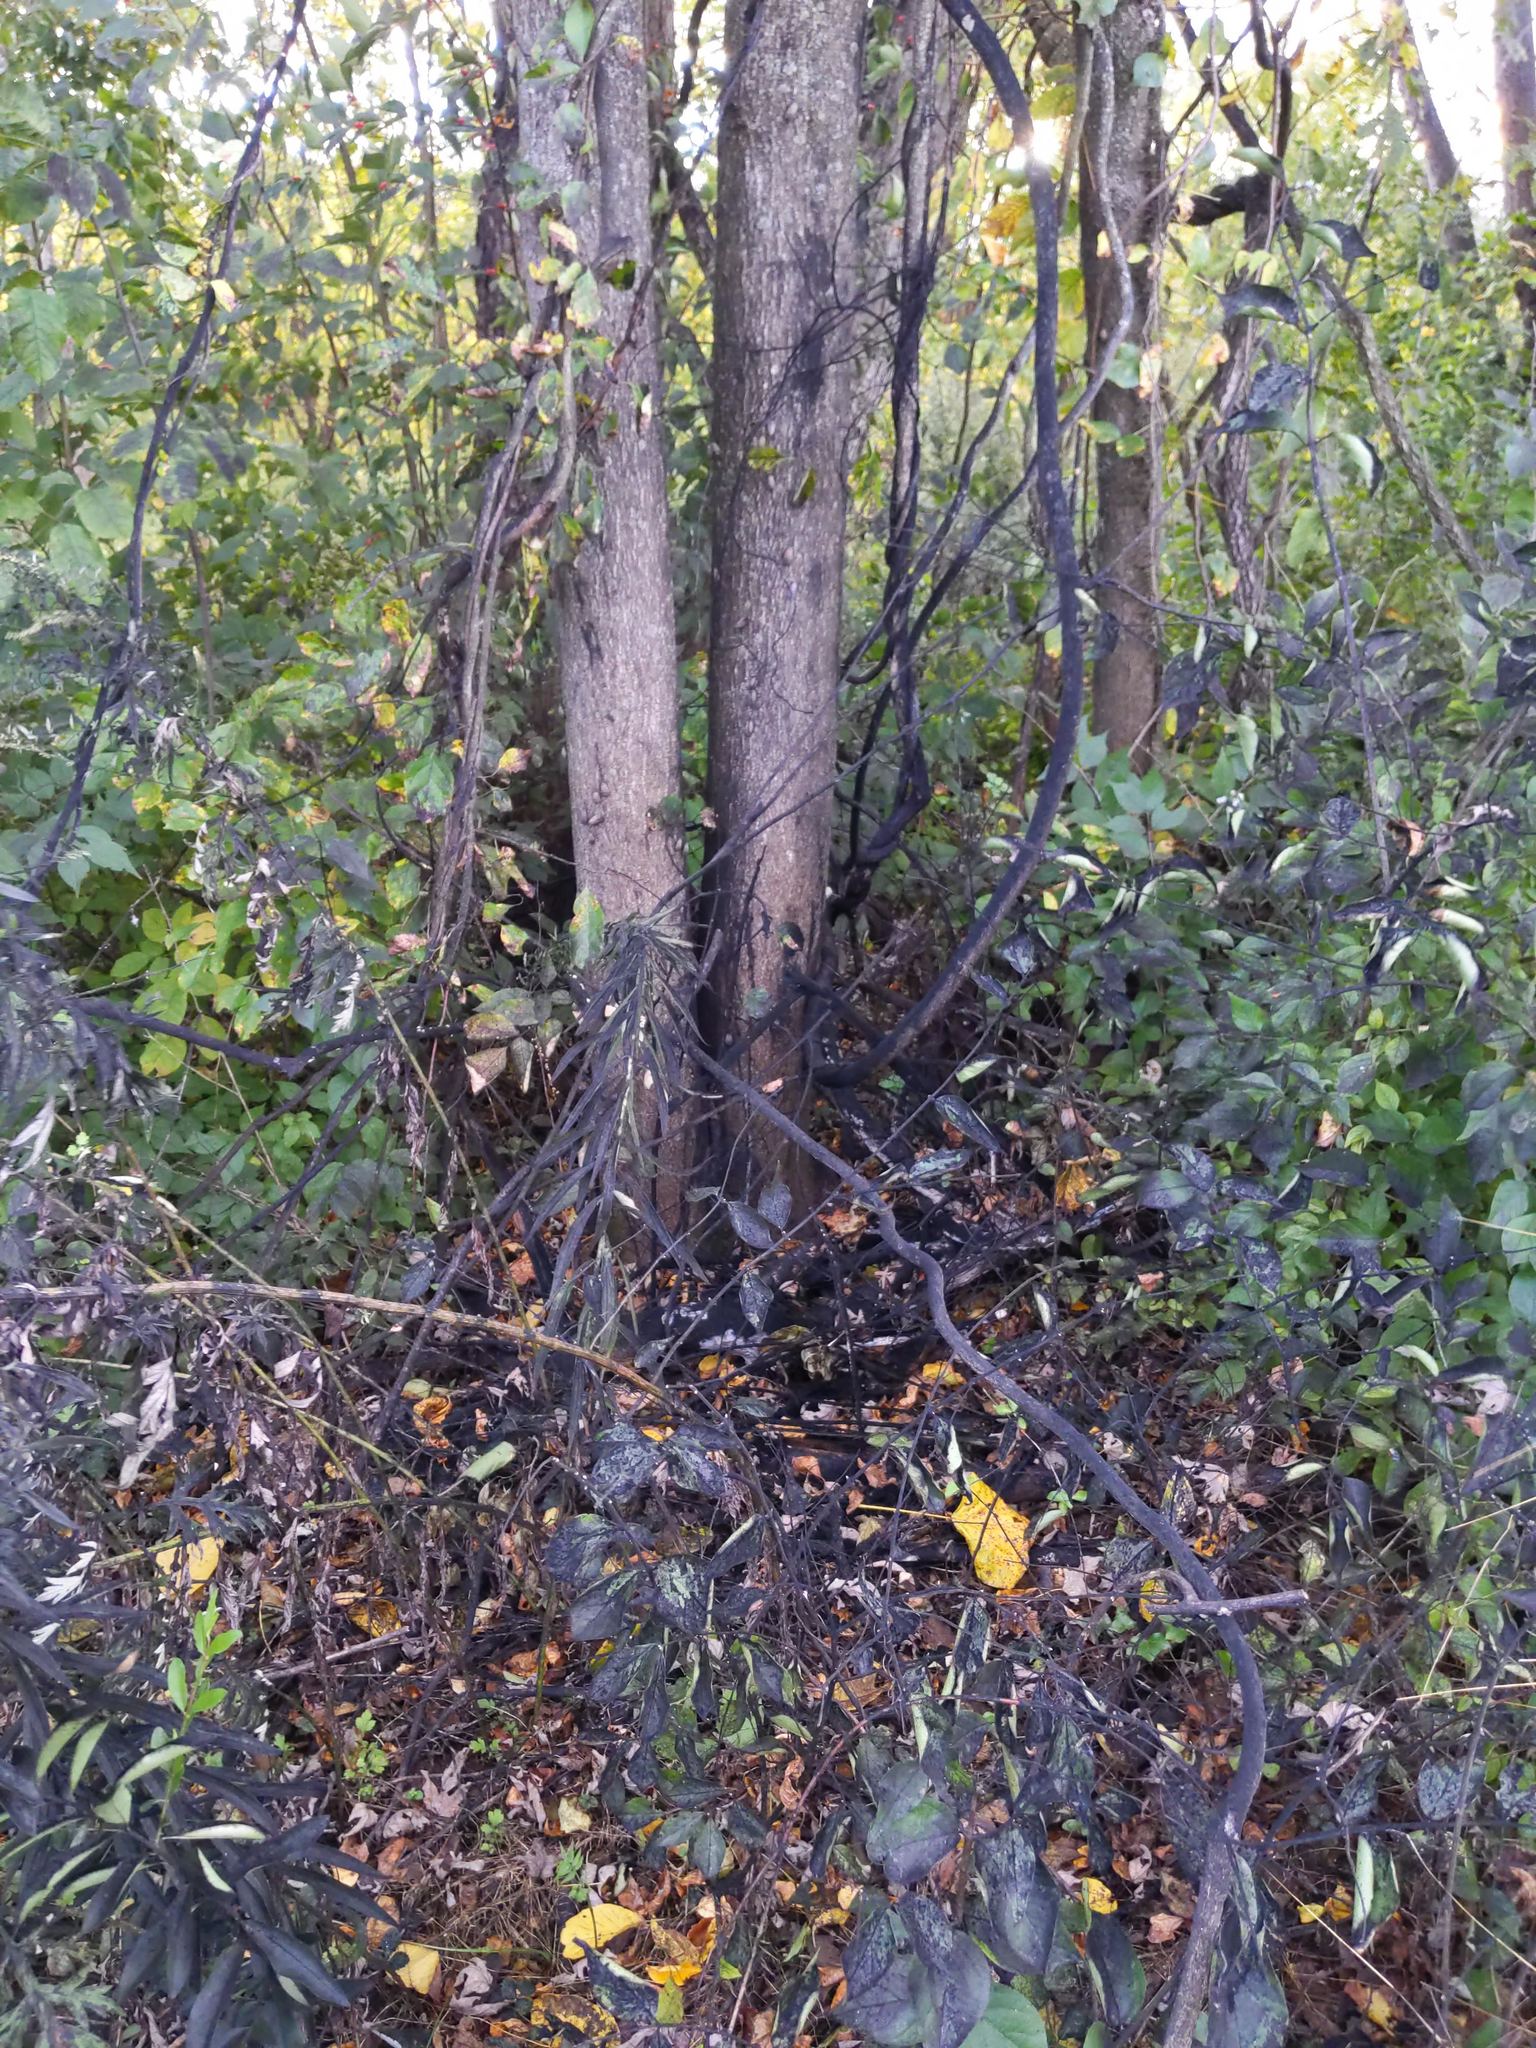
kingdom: Animalia
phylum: Arthropoda
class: Insecta
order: Hemiptera
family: Fulgoridae
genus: Lycorma
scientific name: Lycorma delicatula
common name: Spotted lanternfly
